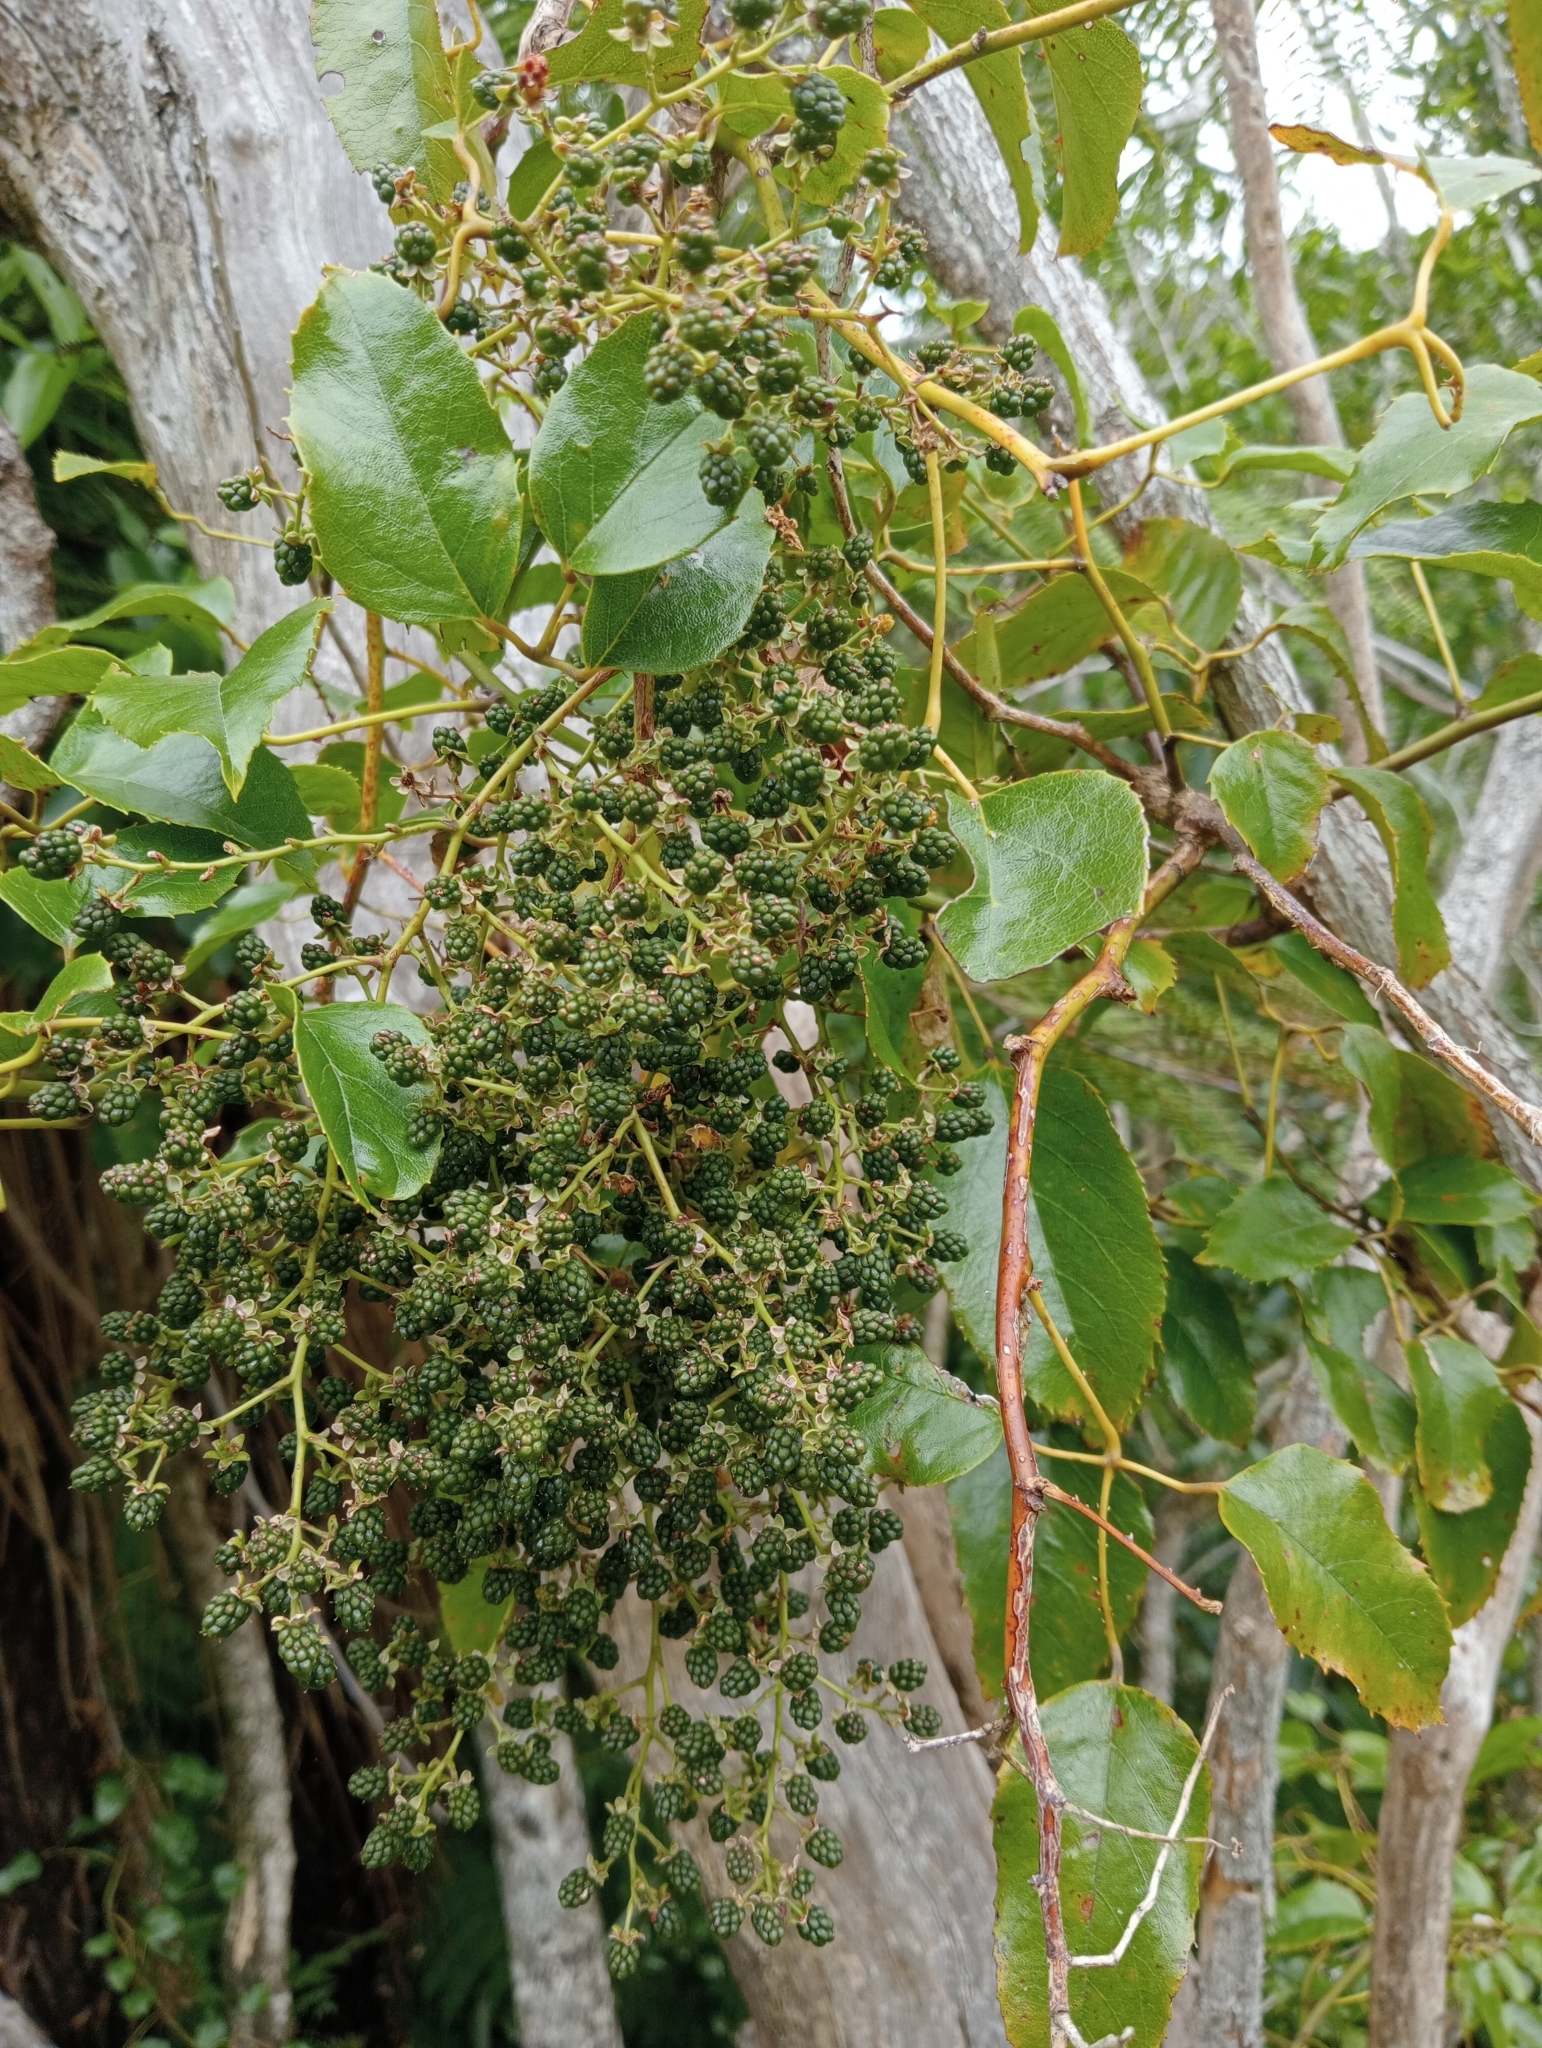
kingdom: Plantae
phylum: Tracheophyta
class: Magnoliopsida
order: Rosales
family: Rosaceae
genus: Rubus
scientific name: Rubus cissoides
